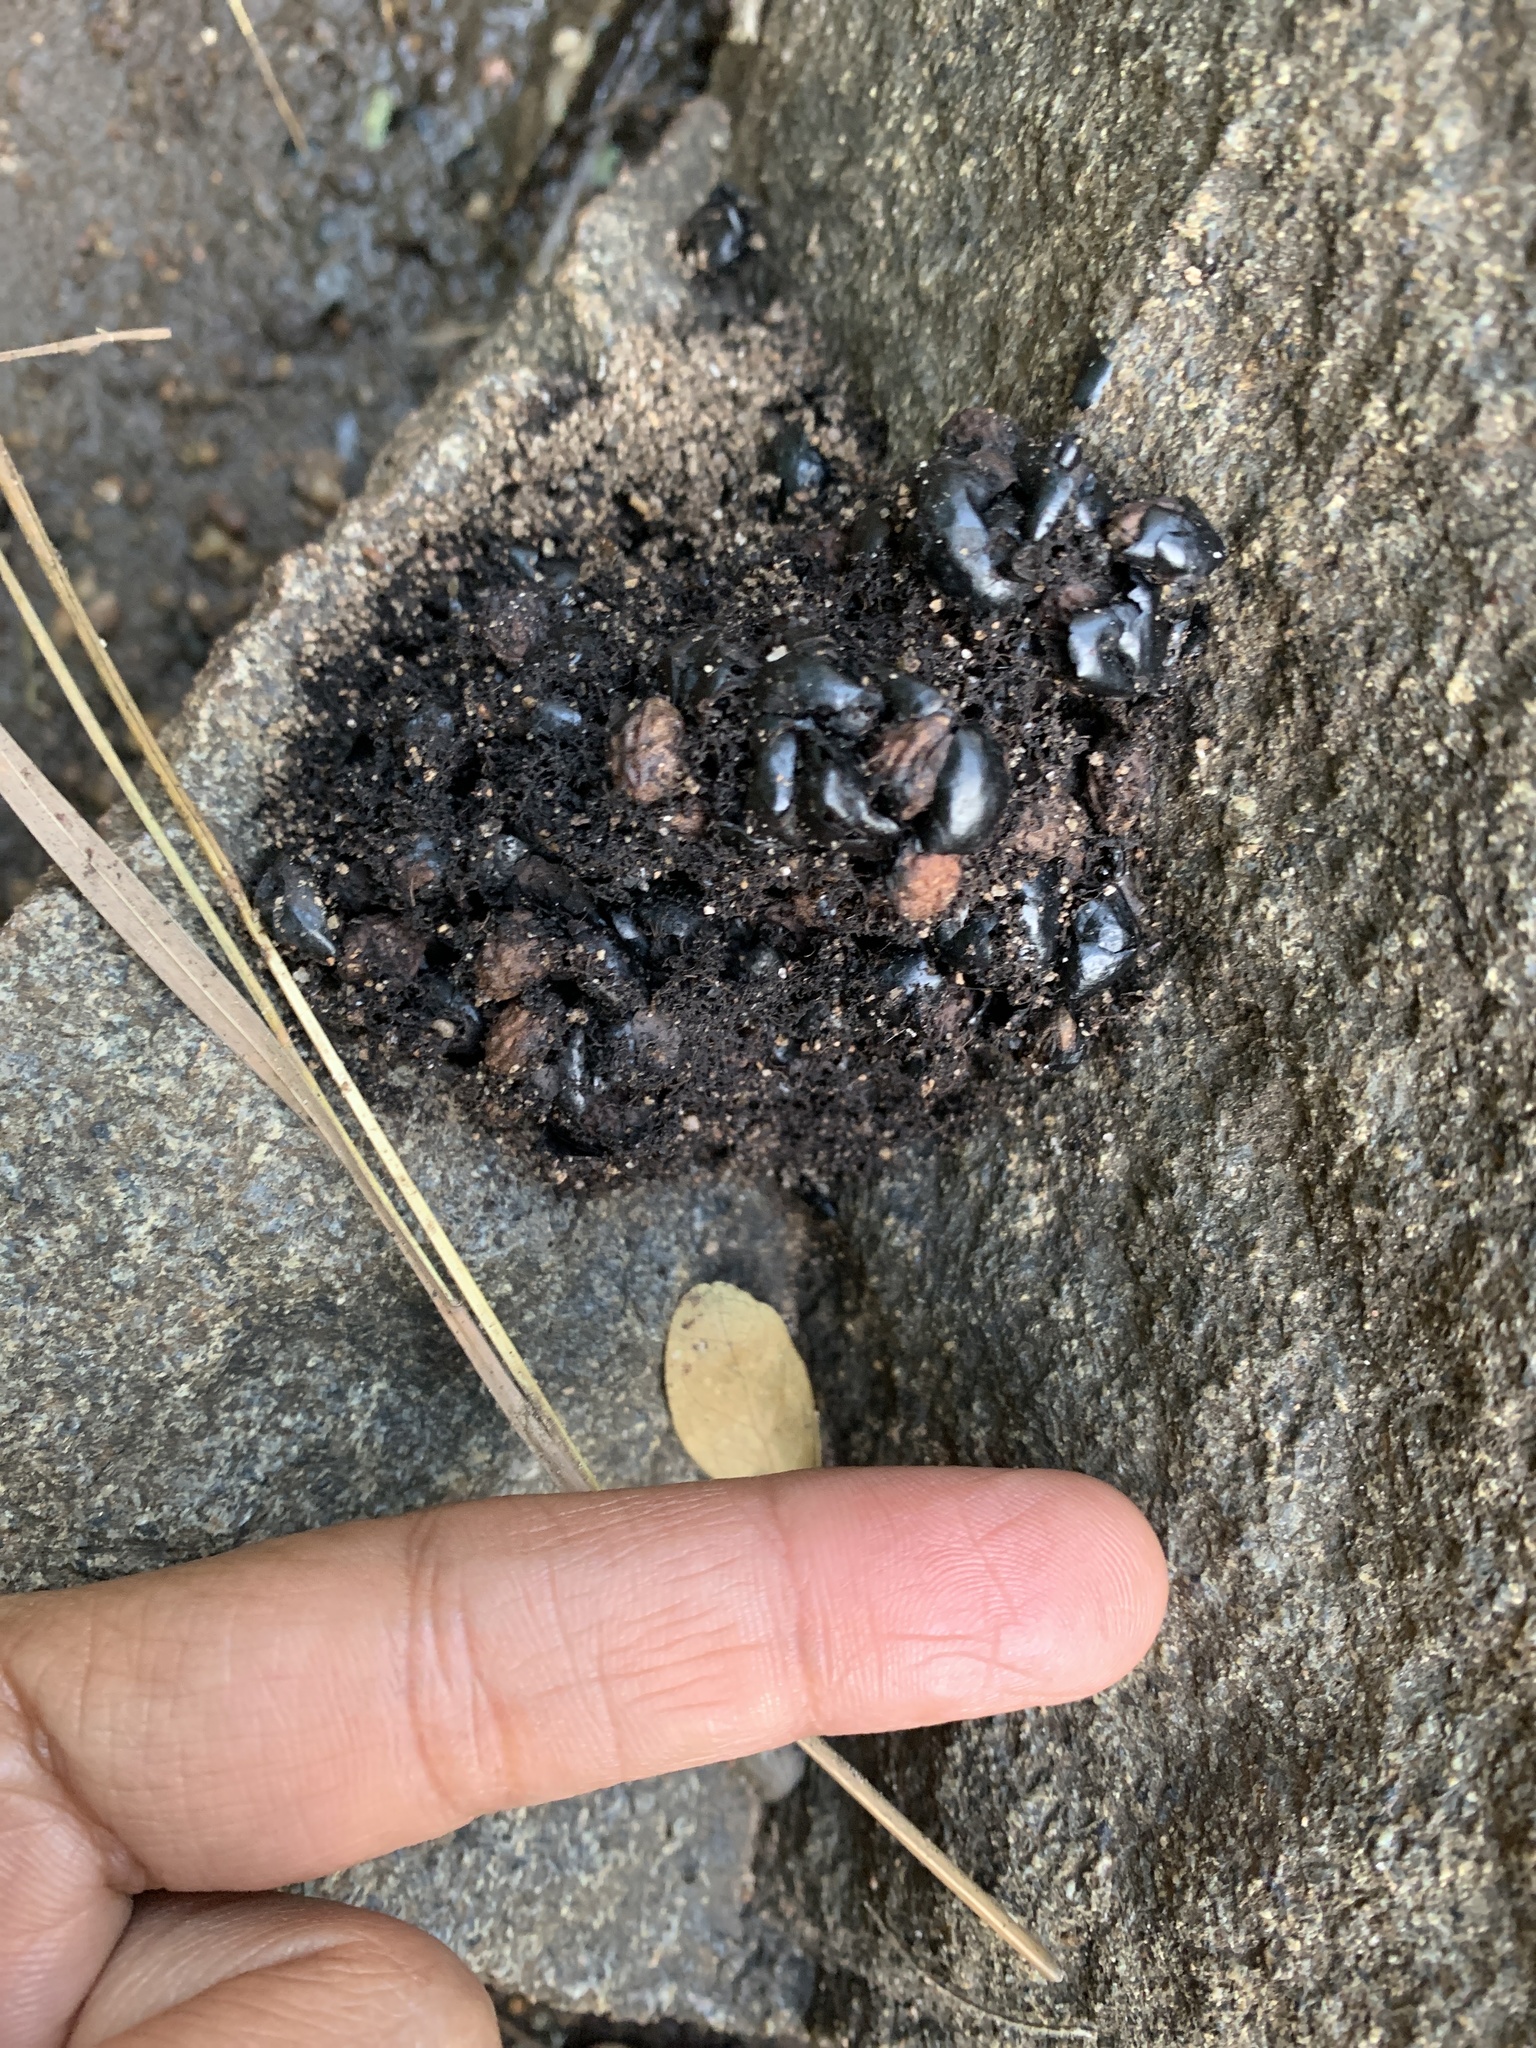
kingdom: Animalia
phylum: Chordata
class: Mammalia
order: Carnivora
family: Ursidae
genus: Melursus
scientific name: Melursus ursinus
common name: Sloth bear
